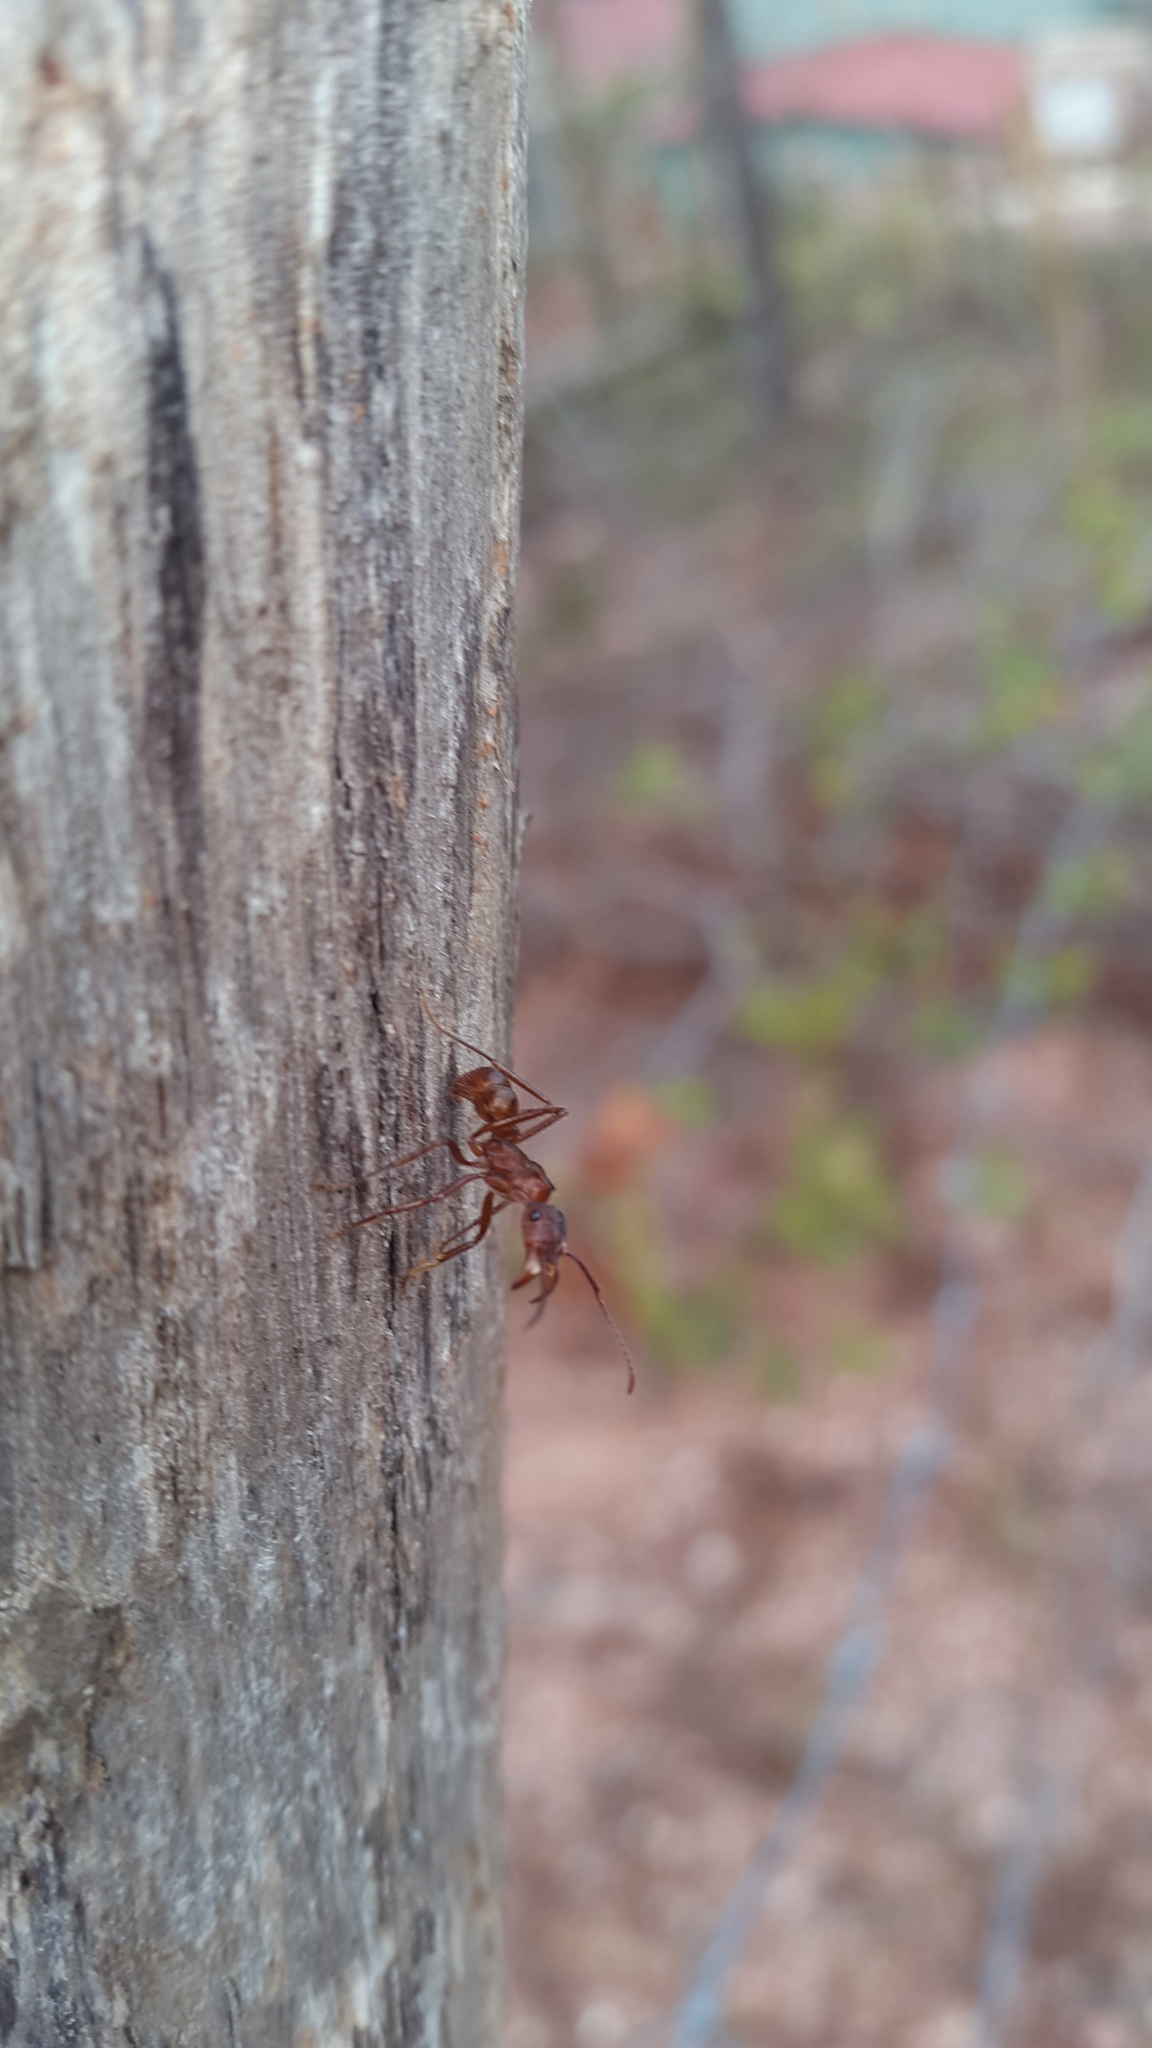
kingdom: Animalia
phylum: Arthropoda
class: Insecta
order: Hymenoptera
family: Formicidae
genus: Ectatomma
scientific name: Ectatomma tuberculatum
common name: Ant
